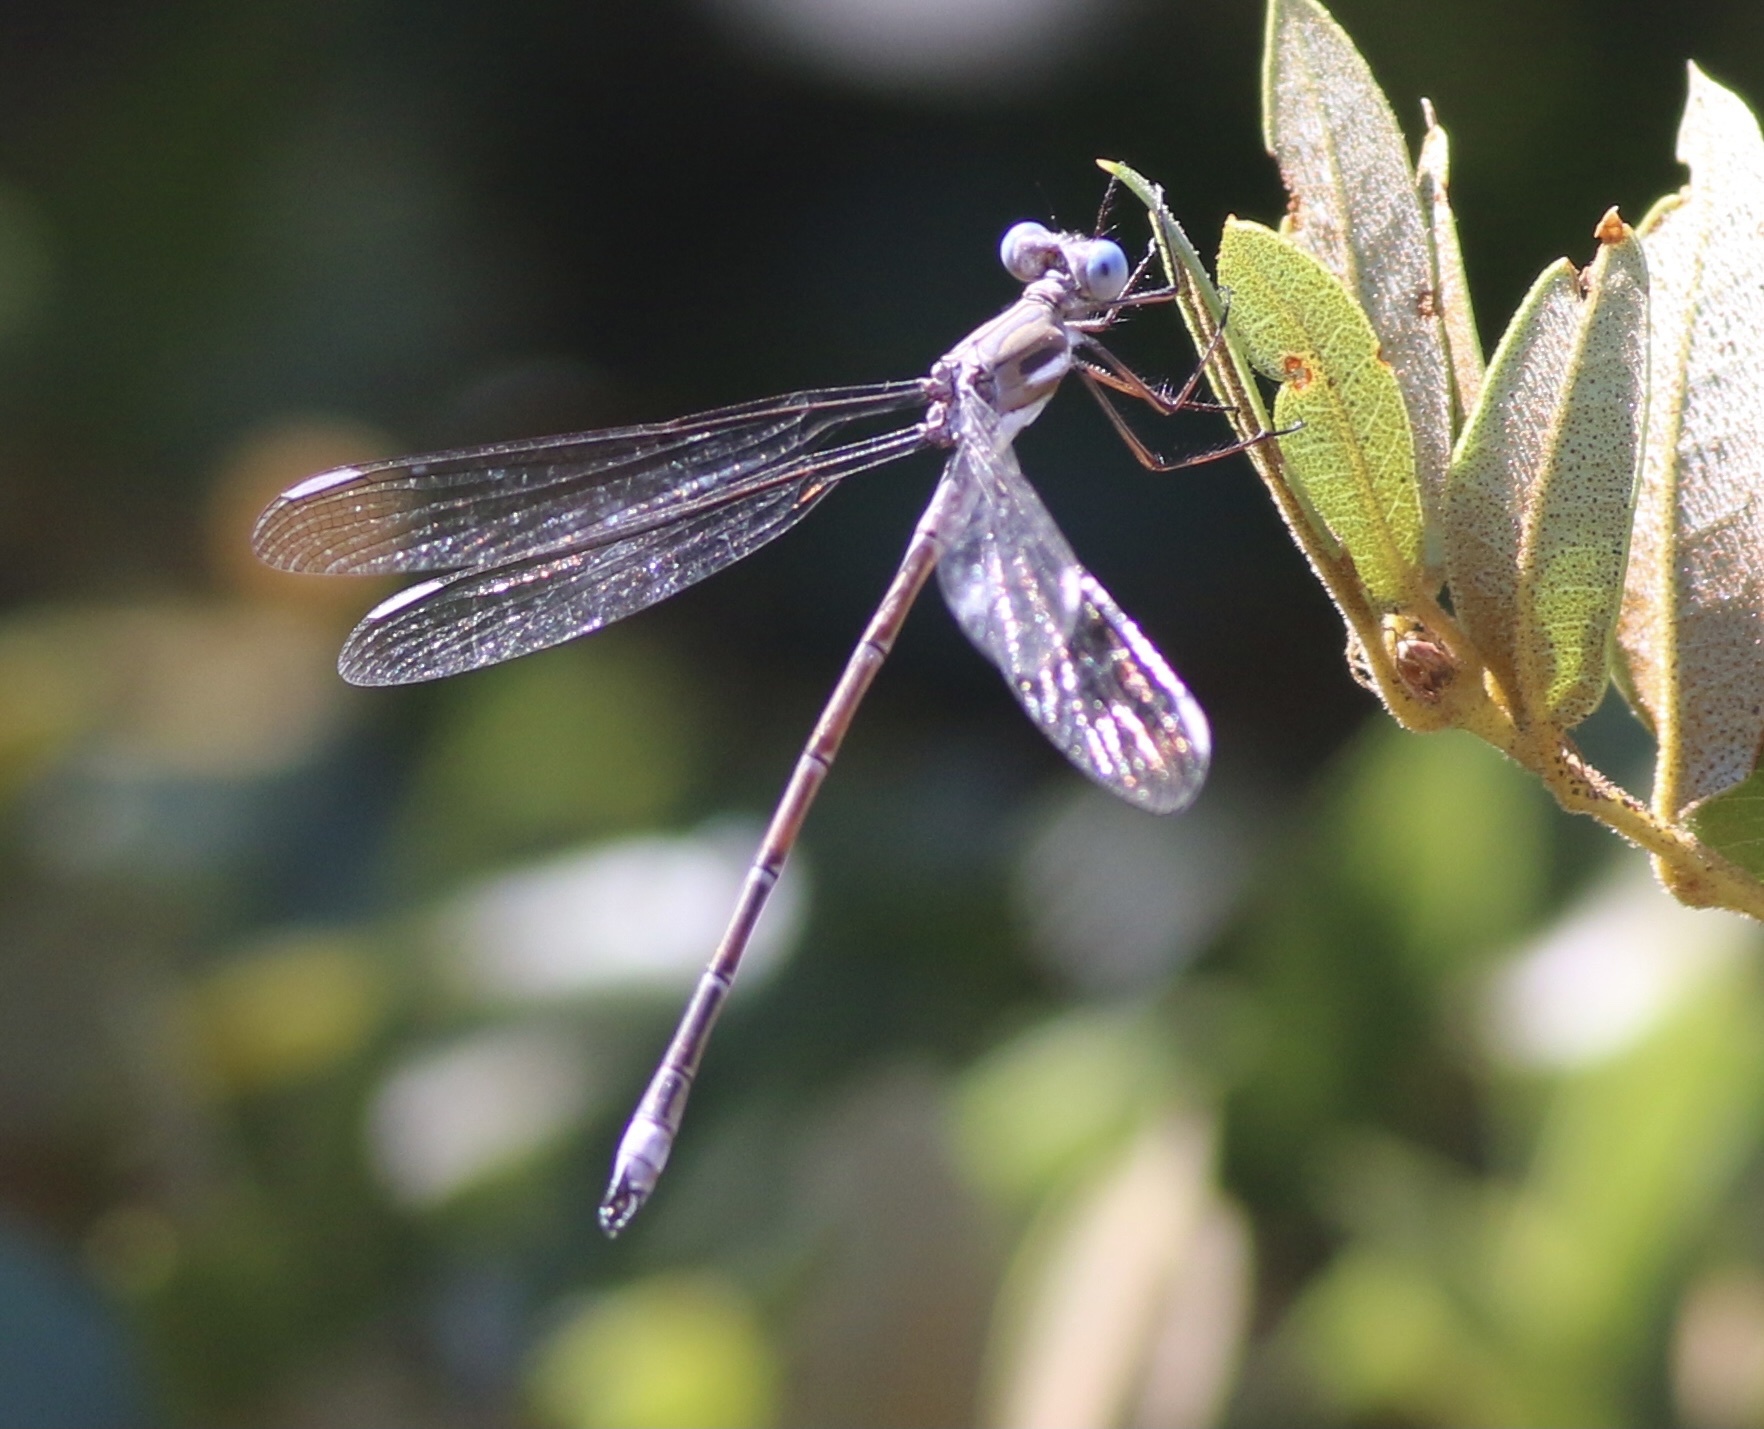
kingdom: Animalia
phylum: Arthropoda
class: Insecta
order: Odonata
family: Lestidae
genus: Archilestes
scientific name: Archilestes californicus
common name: California spreadwing
